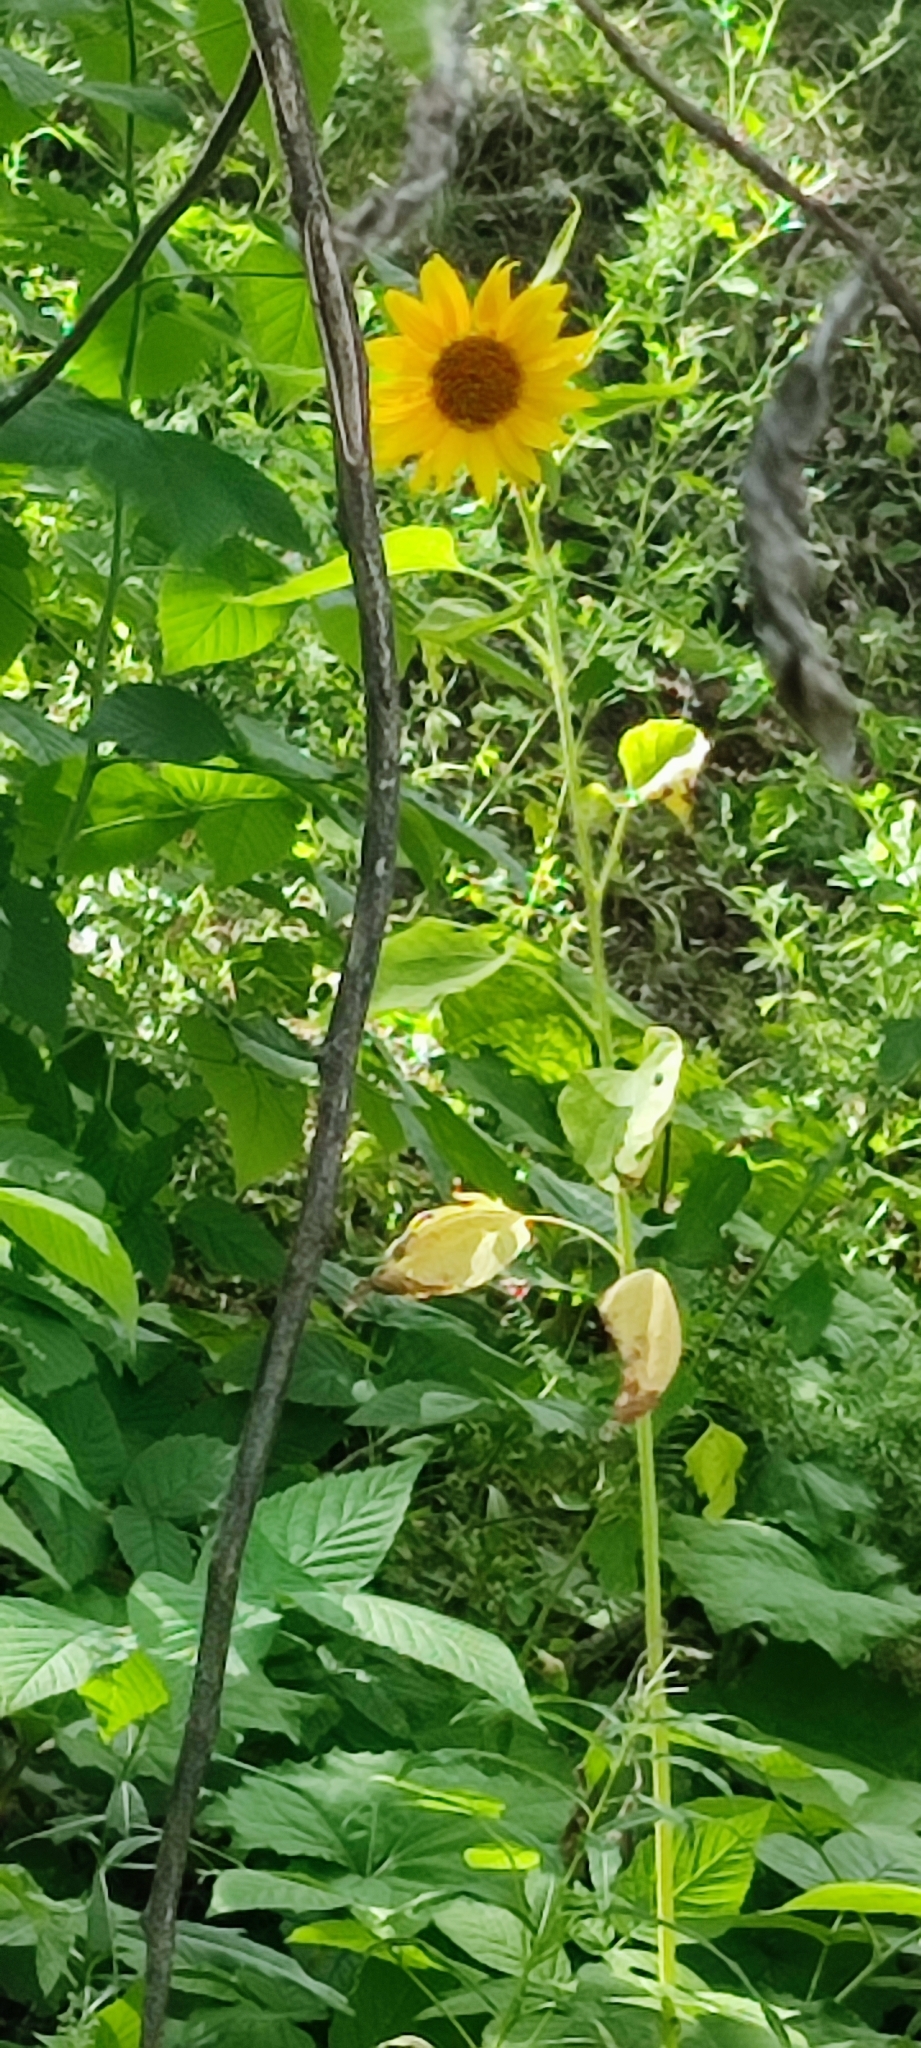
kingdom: Plantae
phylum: Tracheophyta
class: Magnoliopsida
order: Asterales
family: Asteraceae
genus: Helianthus
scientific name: Helianthus annuus
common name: Sunflower
